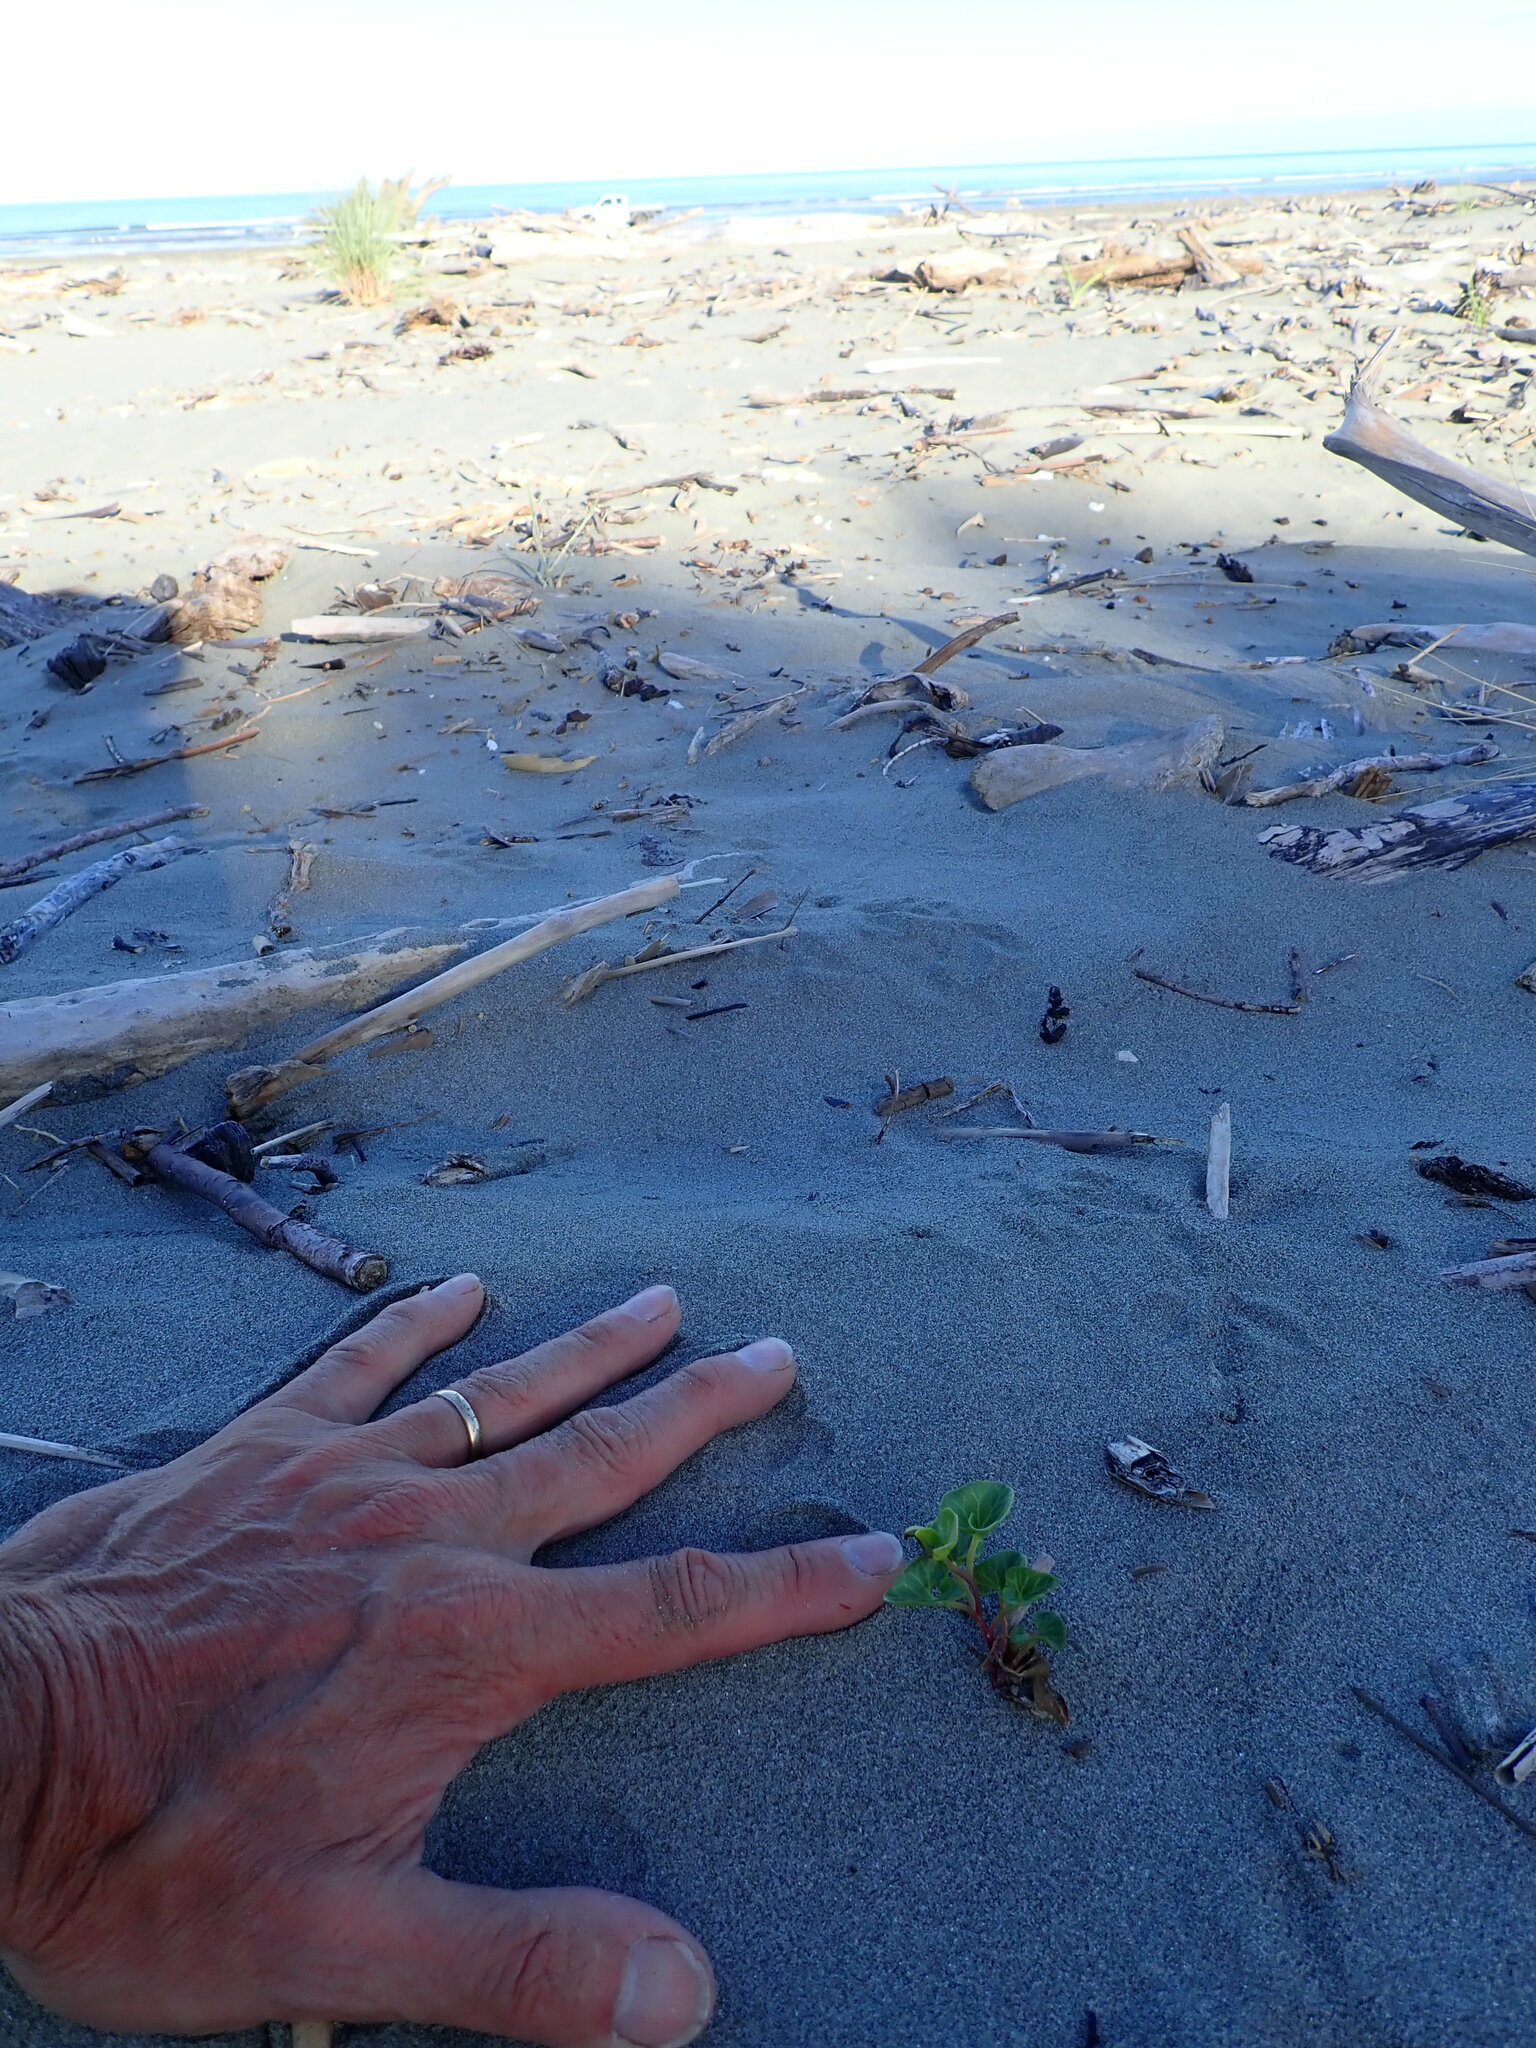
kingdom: Plantae
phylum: Tracheophyta
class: Magnoliopsida
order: Solanales
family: Convolvulaceae
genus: Calystegia
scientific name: Calystegia soldanella
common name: Sea bindweed
